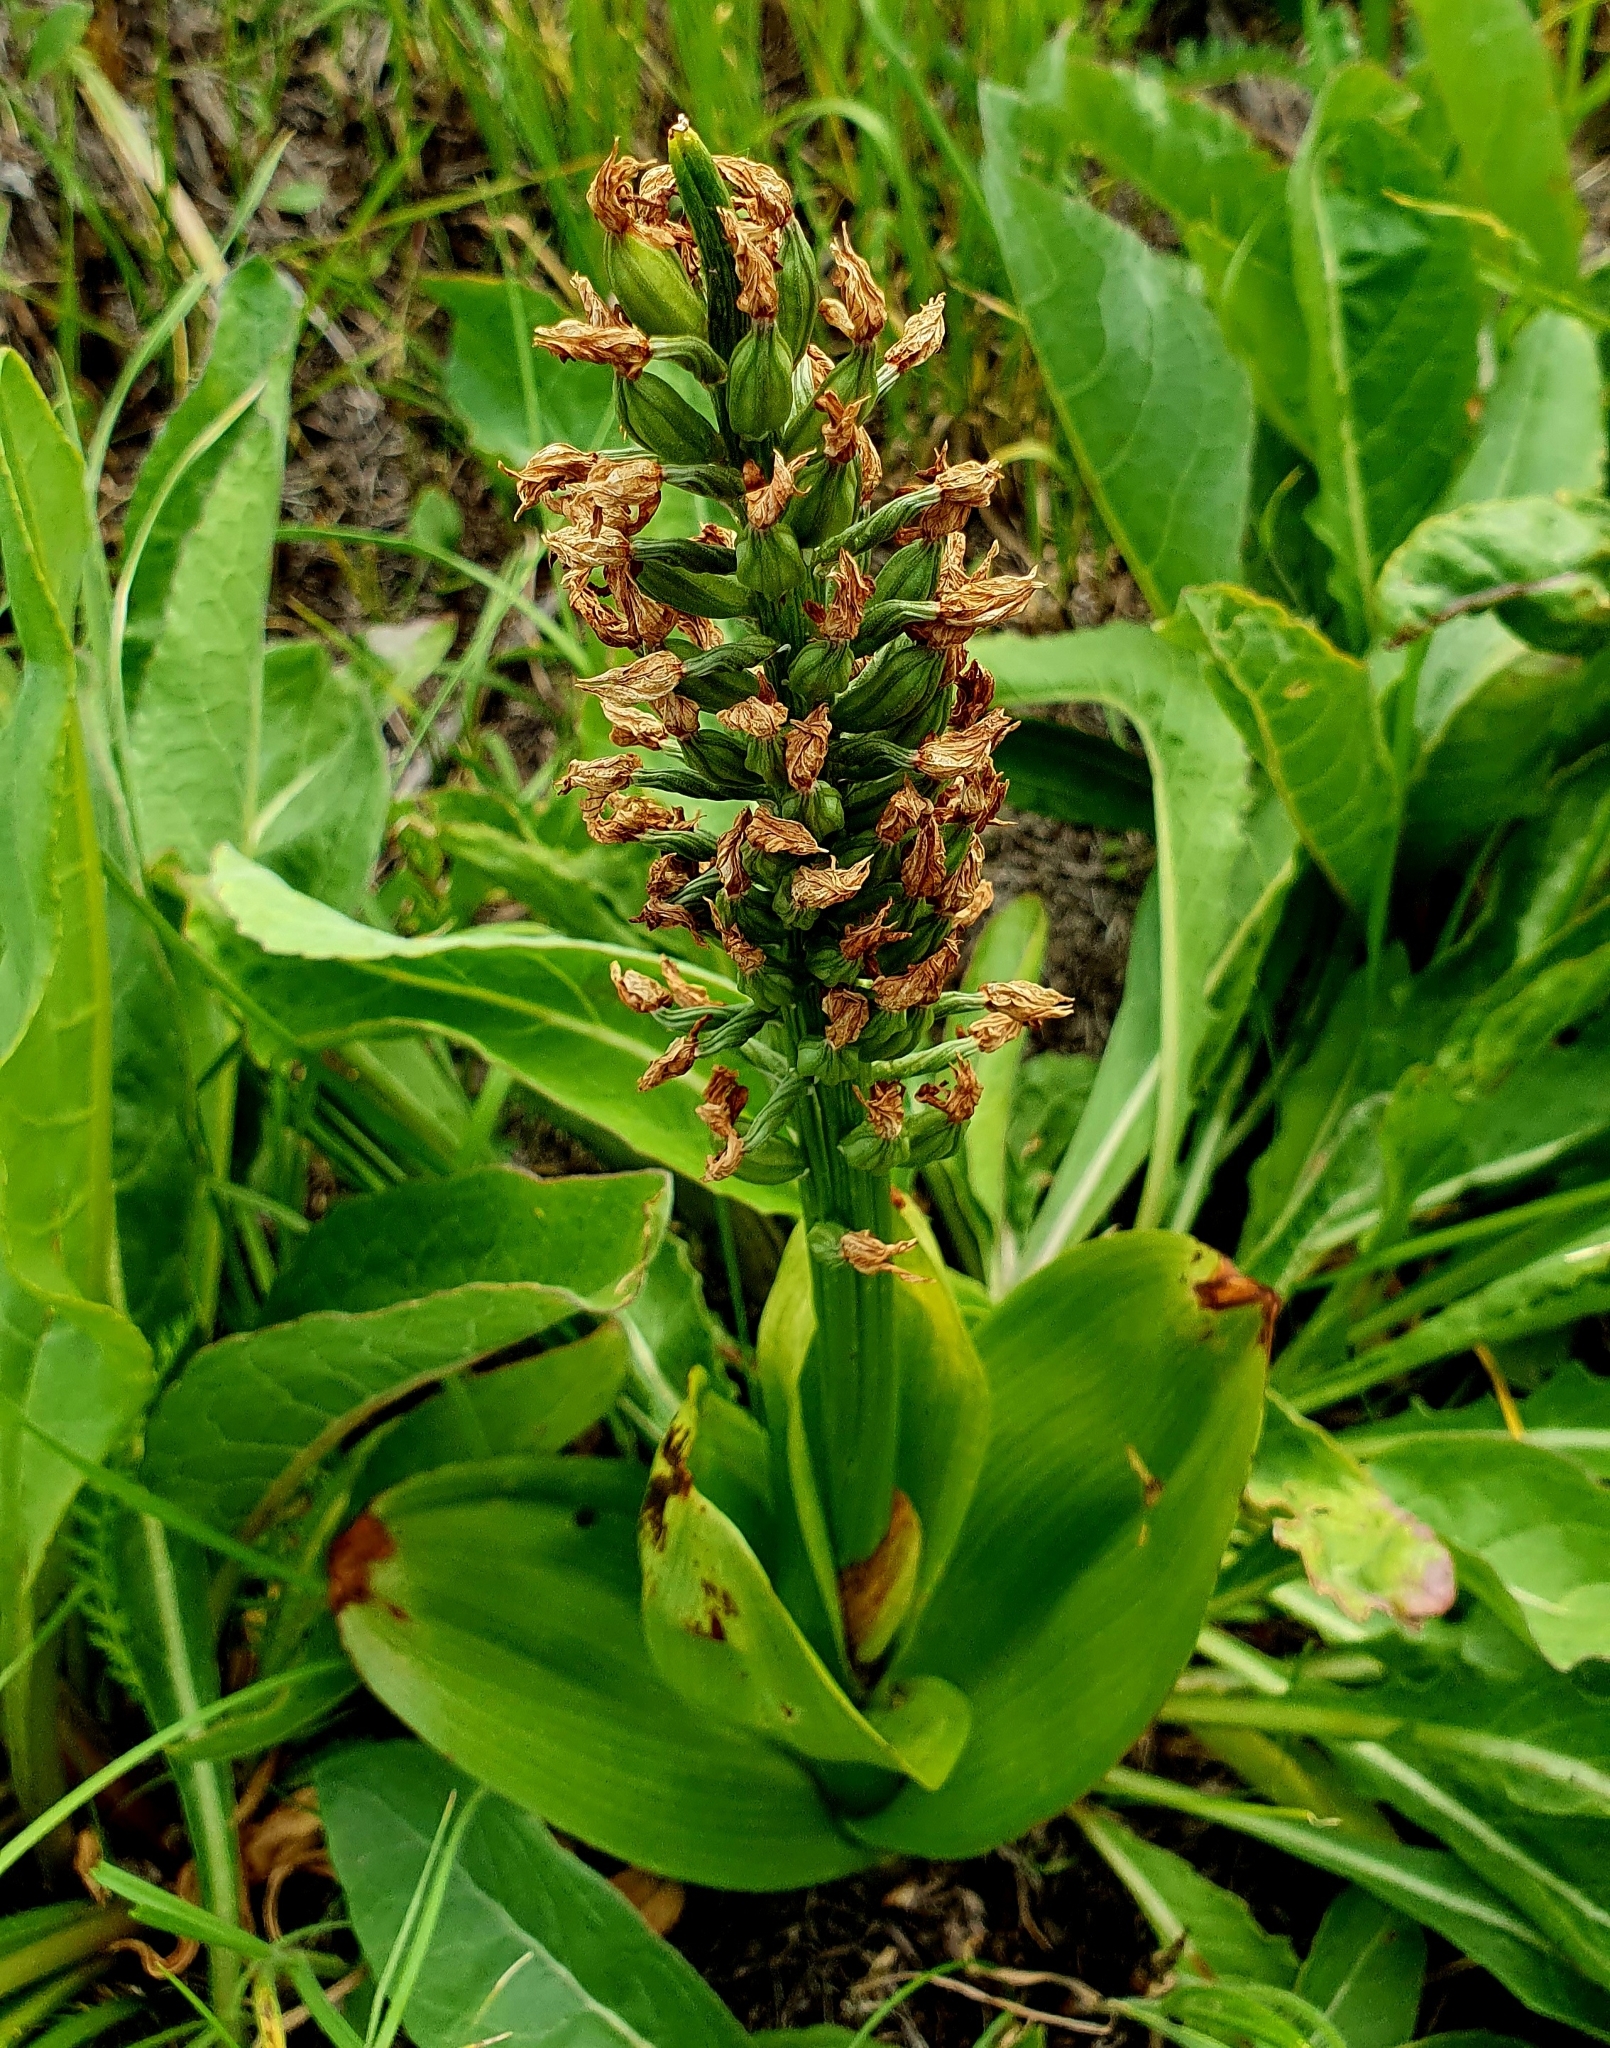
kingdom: Plantae
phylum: Tracheophyta
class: Liliopsida
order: Asparagales
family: Orchidaceae
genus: Orchis
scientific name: Orchis militaris
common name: Military orchid
